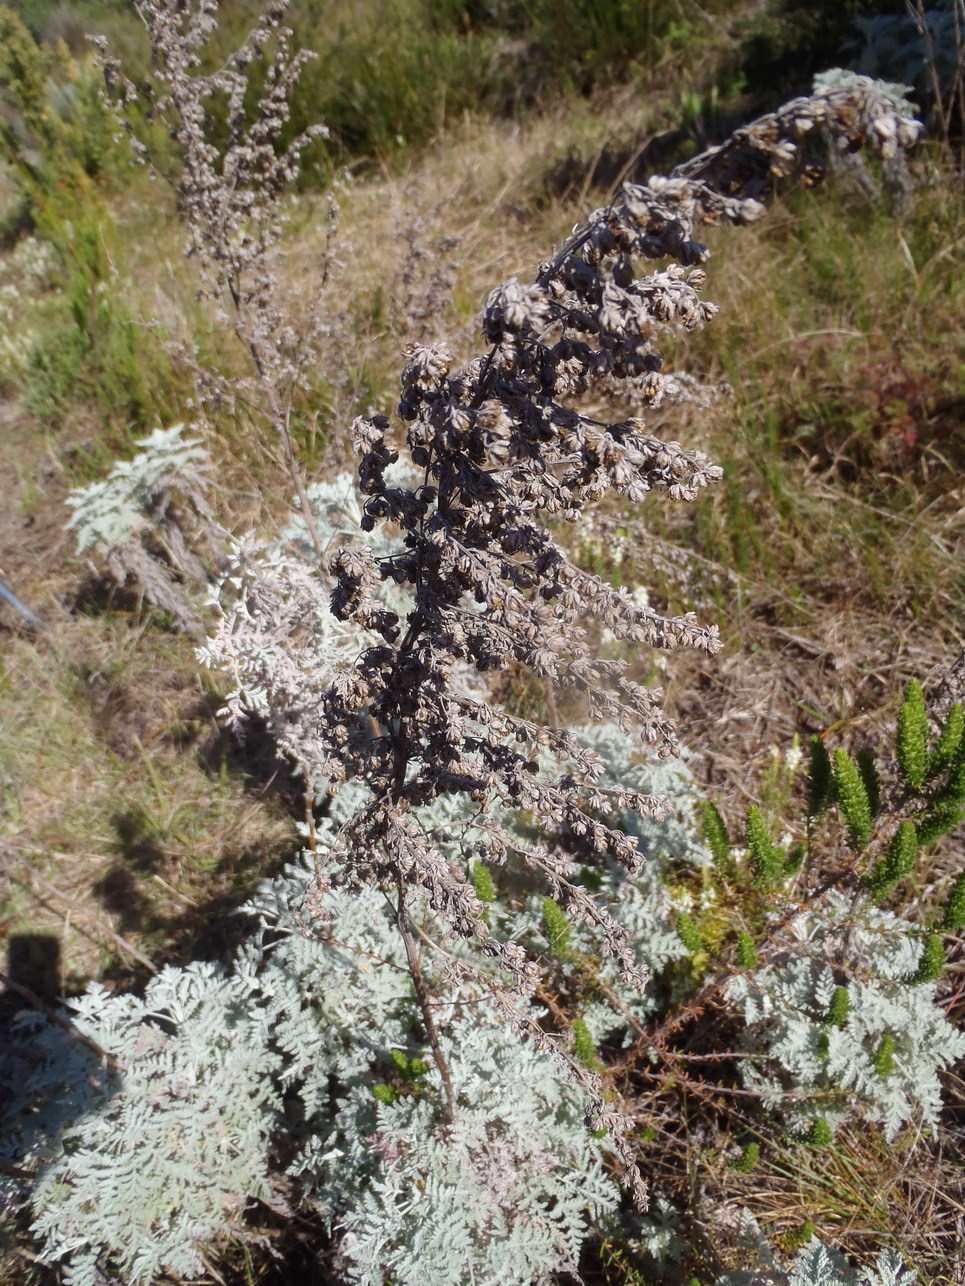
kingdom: Plantae
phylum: Tracheophyta
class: Magnoliopsida
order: Asterales
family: Asteraceae
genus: Artemisia
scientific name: Artemisia afra
